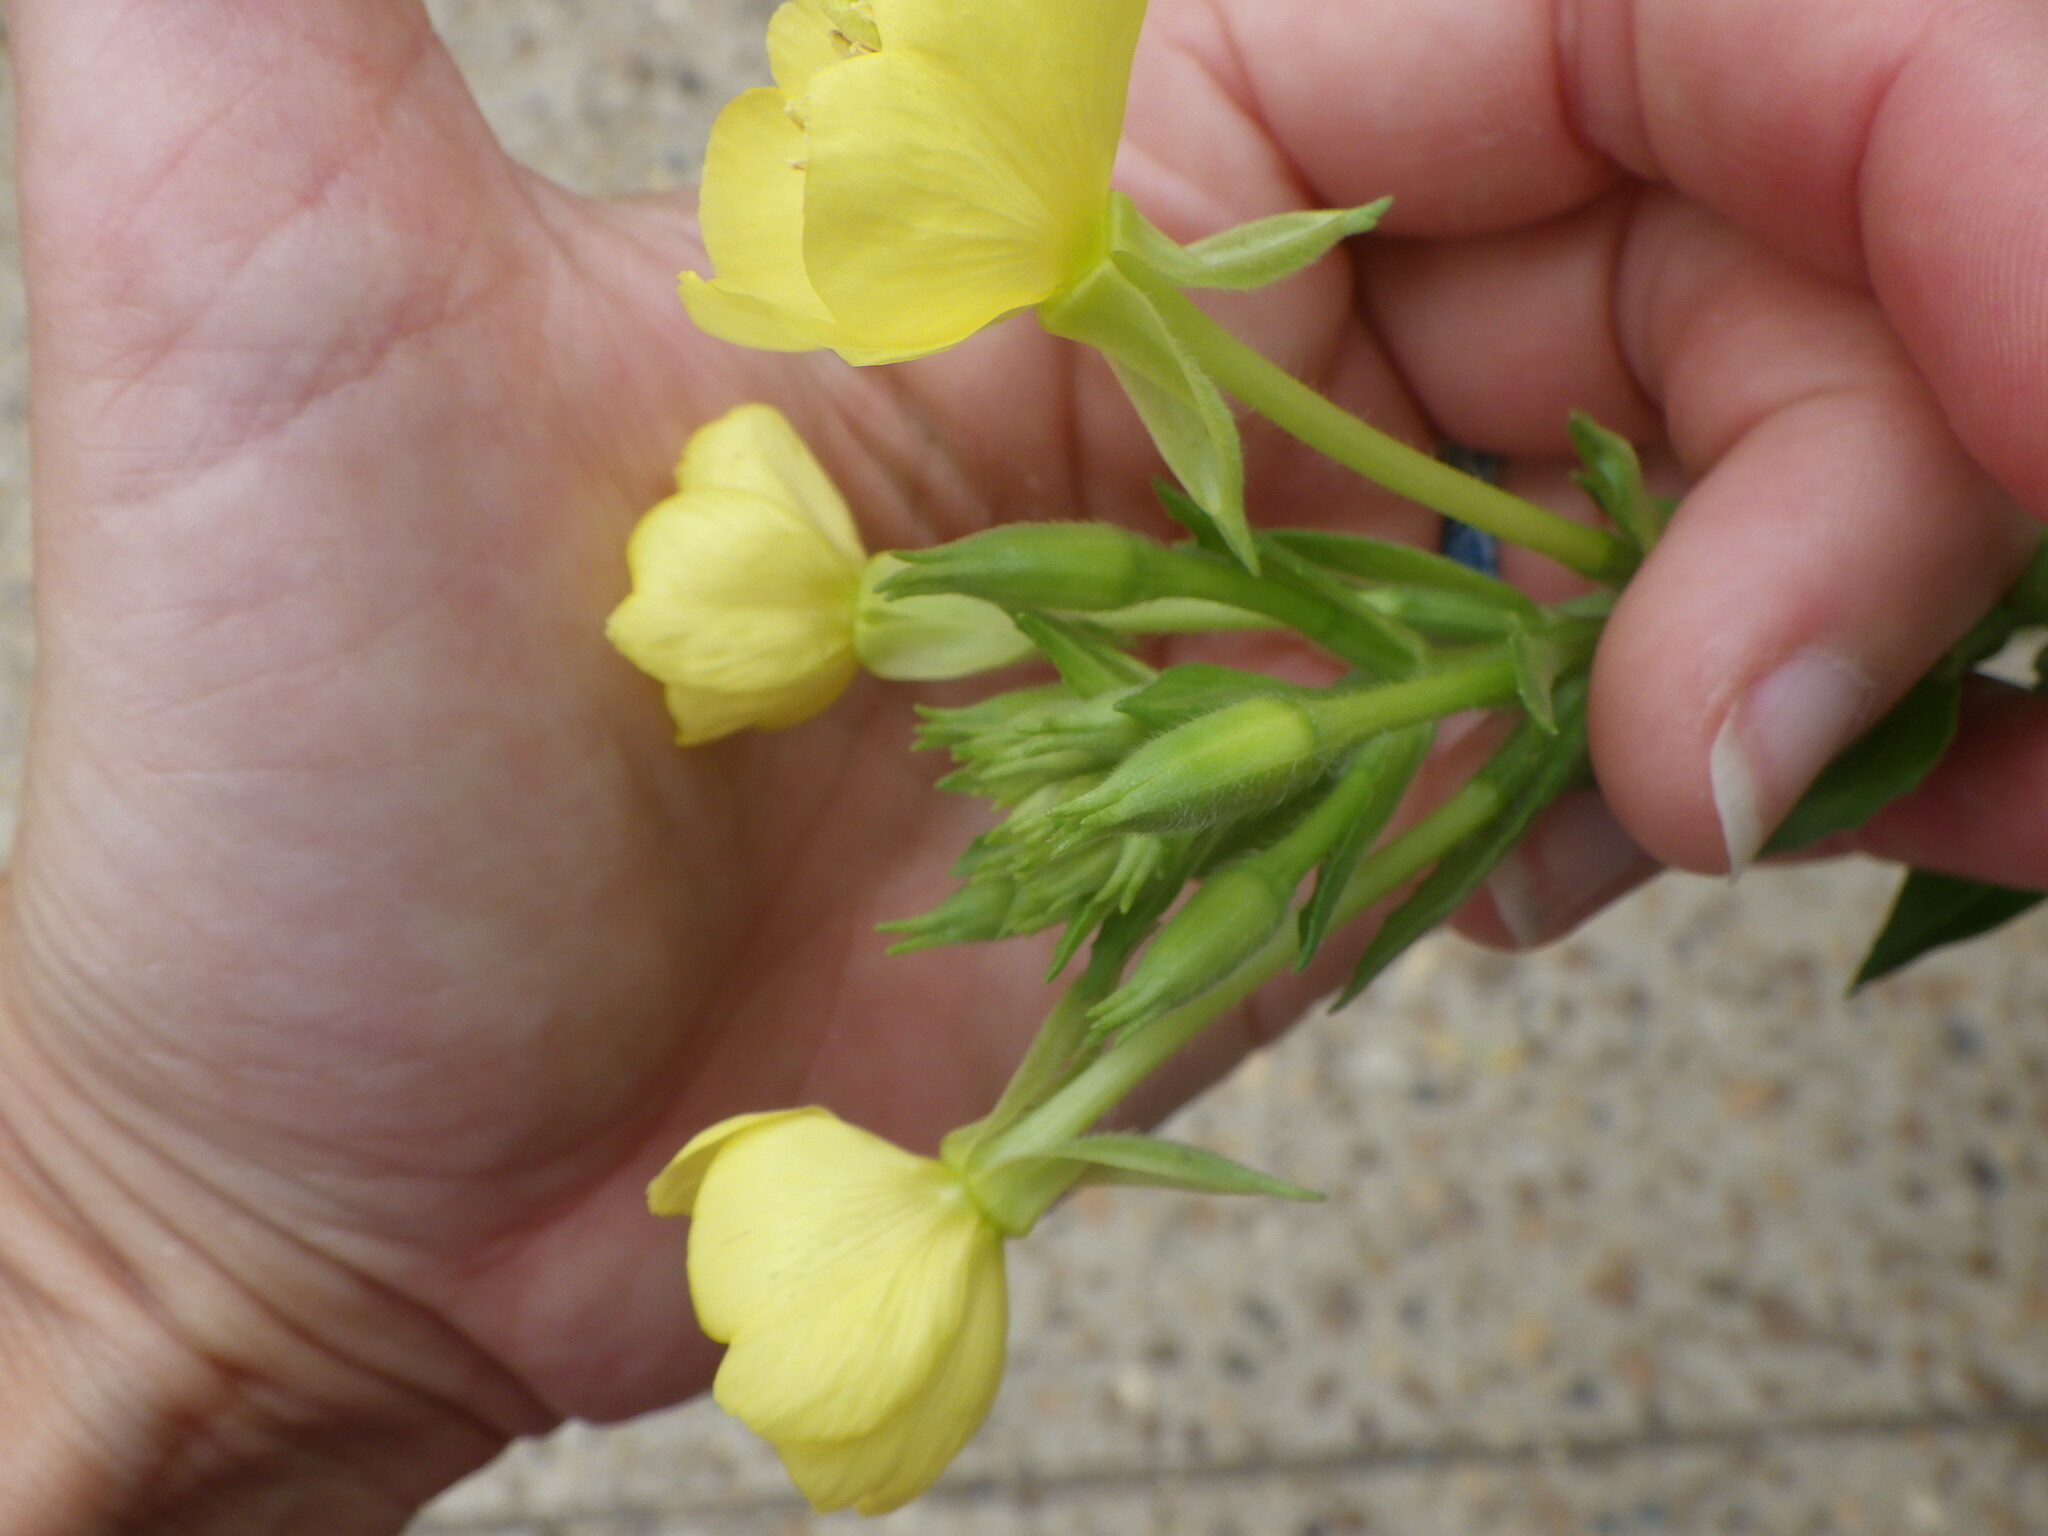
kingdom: Plantae
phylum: Tracheophyta
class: Magnoliopsida
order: Myrtales
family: Onagraceae
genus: Oenothera
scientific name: Oenothera biennis
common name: Common evening-primrose
